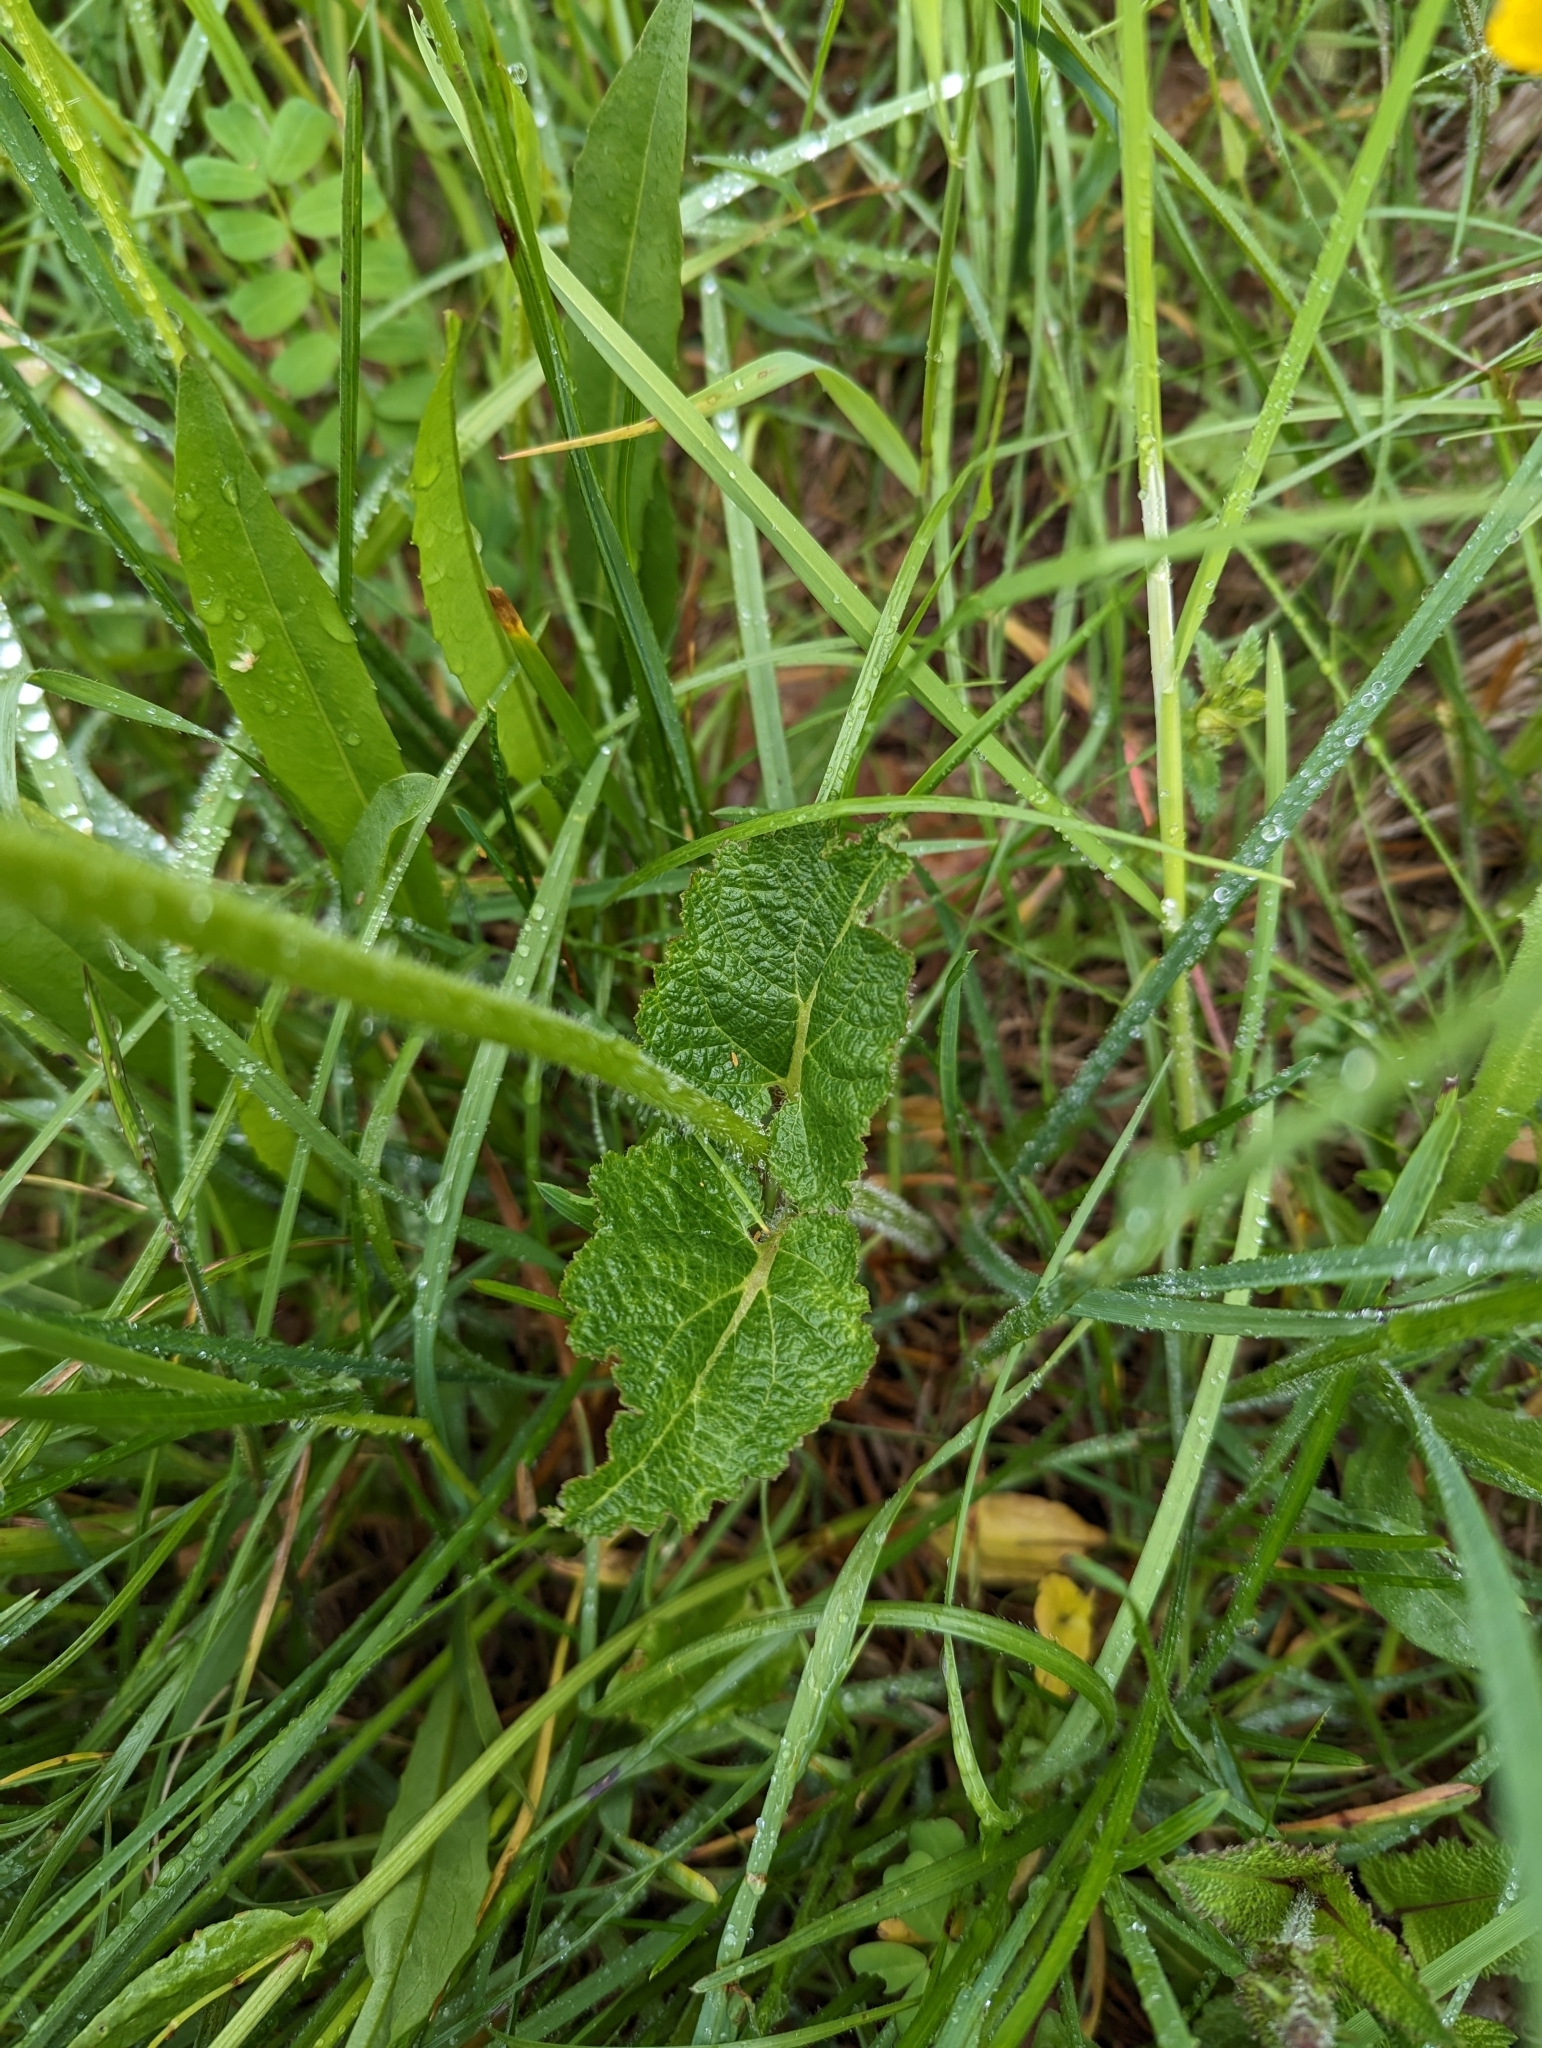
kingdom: Plantae
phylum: Tracheophyta
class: Magnoliopsida
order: Caryophyllales
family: Polygonaceae
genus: Rumex
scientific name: Rumex acetosa
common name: Garden sorrel
